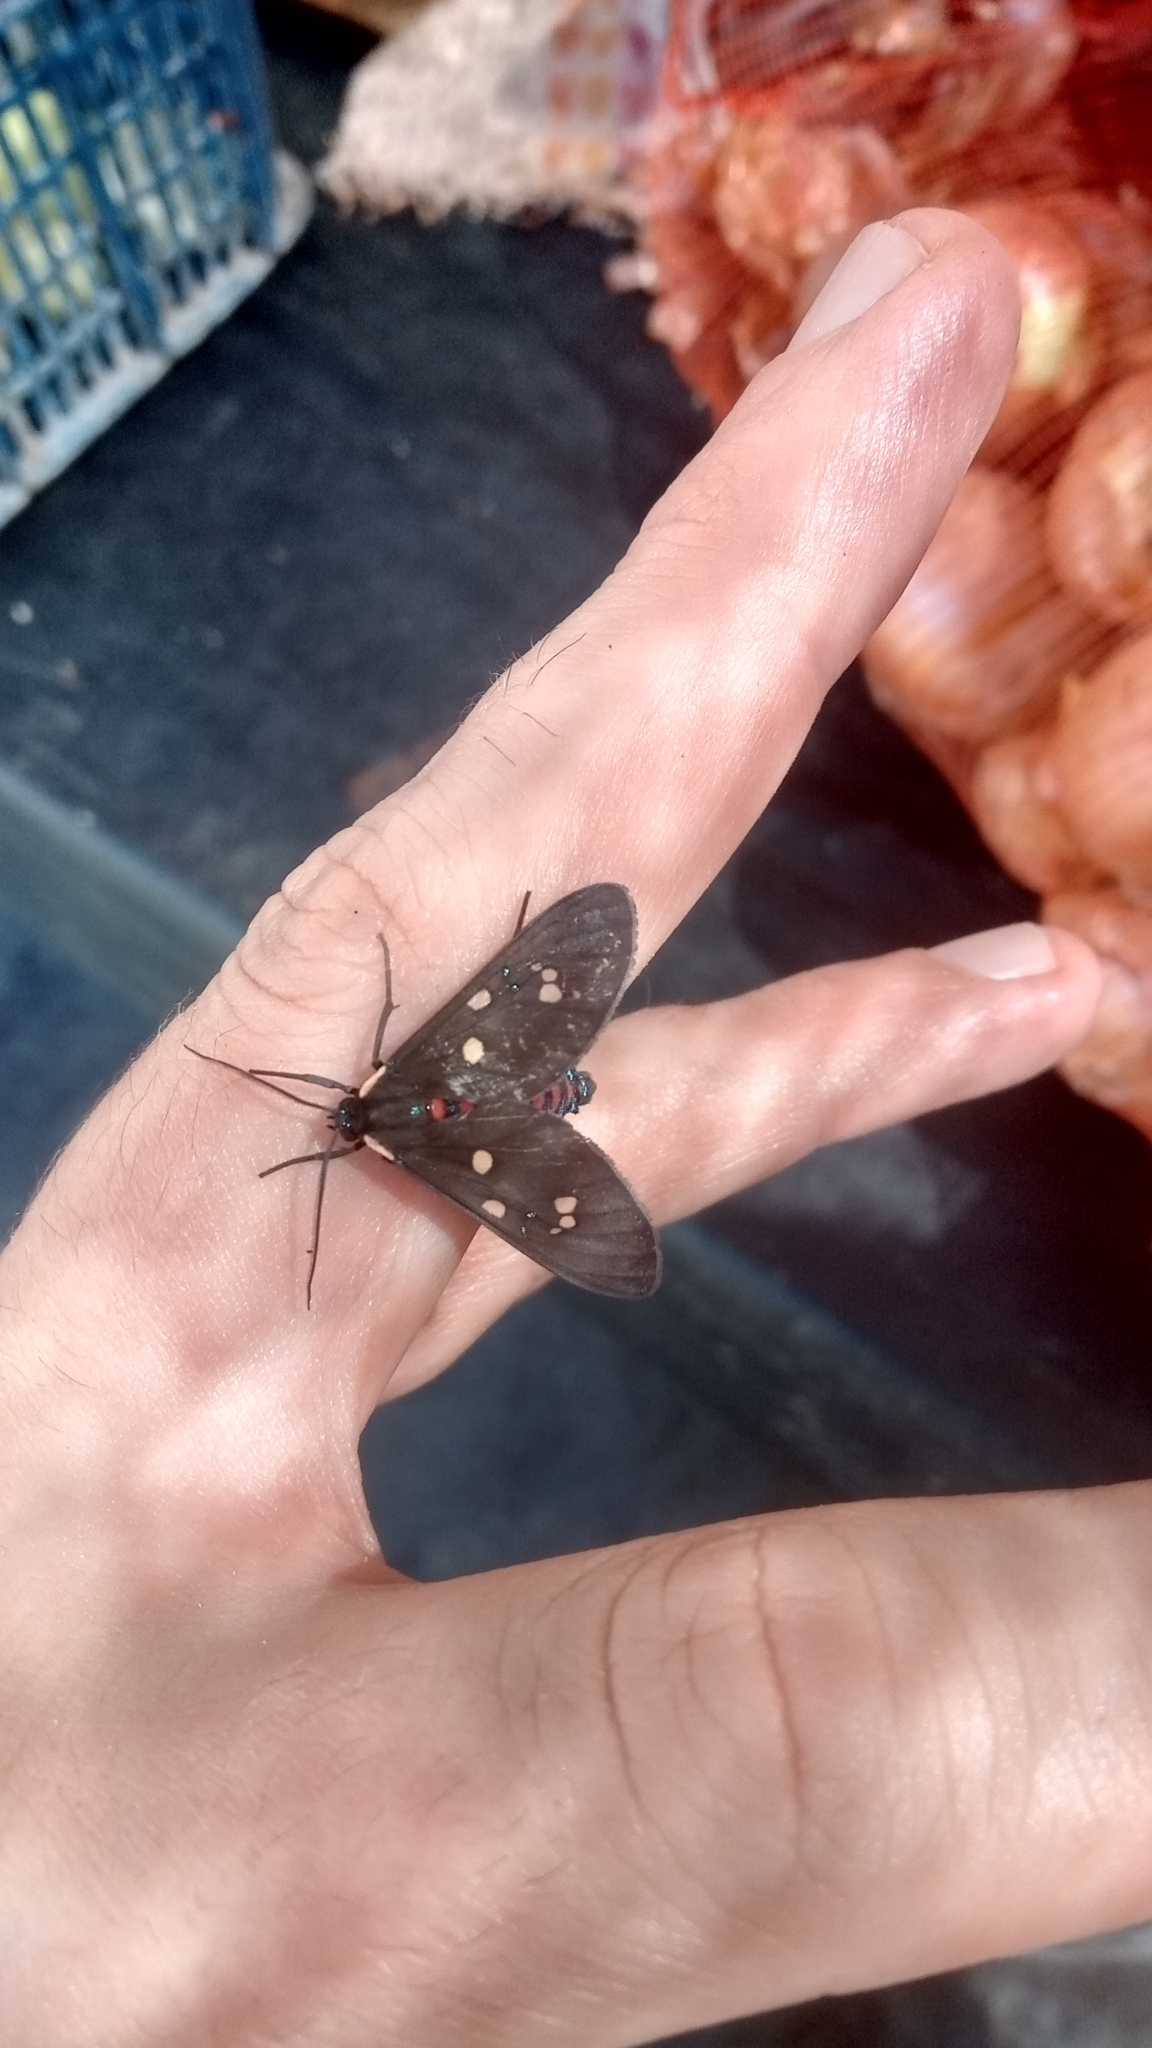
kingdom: Animalia
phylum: Arthropoda
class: Insecta
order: Lepidoptera
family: Erebidae
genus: Euclera
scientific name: Euclera
